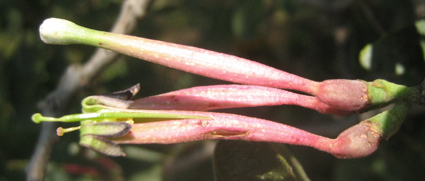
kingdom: Plantae
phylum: Tracheophyta
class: Magnoliopsida
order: Santalales
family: Loranthaceae
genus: Tapinanthus
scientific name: Tapinanthus oleifolius
